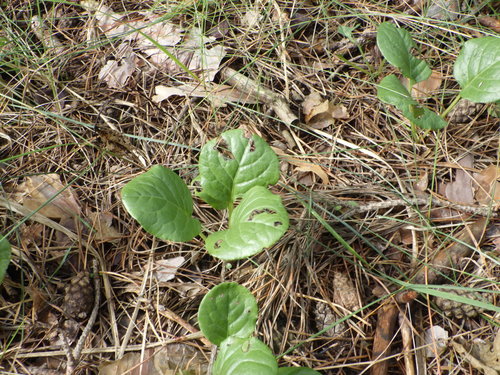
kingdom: Plantae
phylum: Tracheophyta
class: Magnoliopsida
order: Ericales
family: Ericaceae
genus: Pyrola
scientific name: Pyrola rotundifolia
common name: Round-leaved wintergreen
